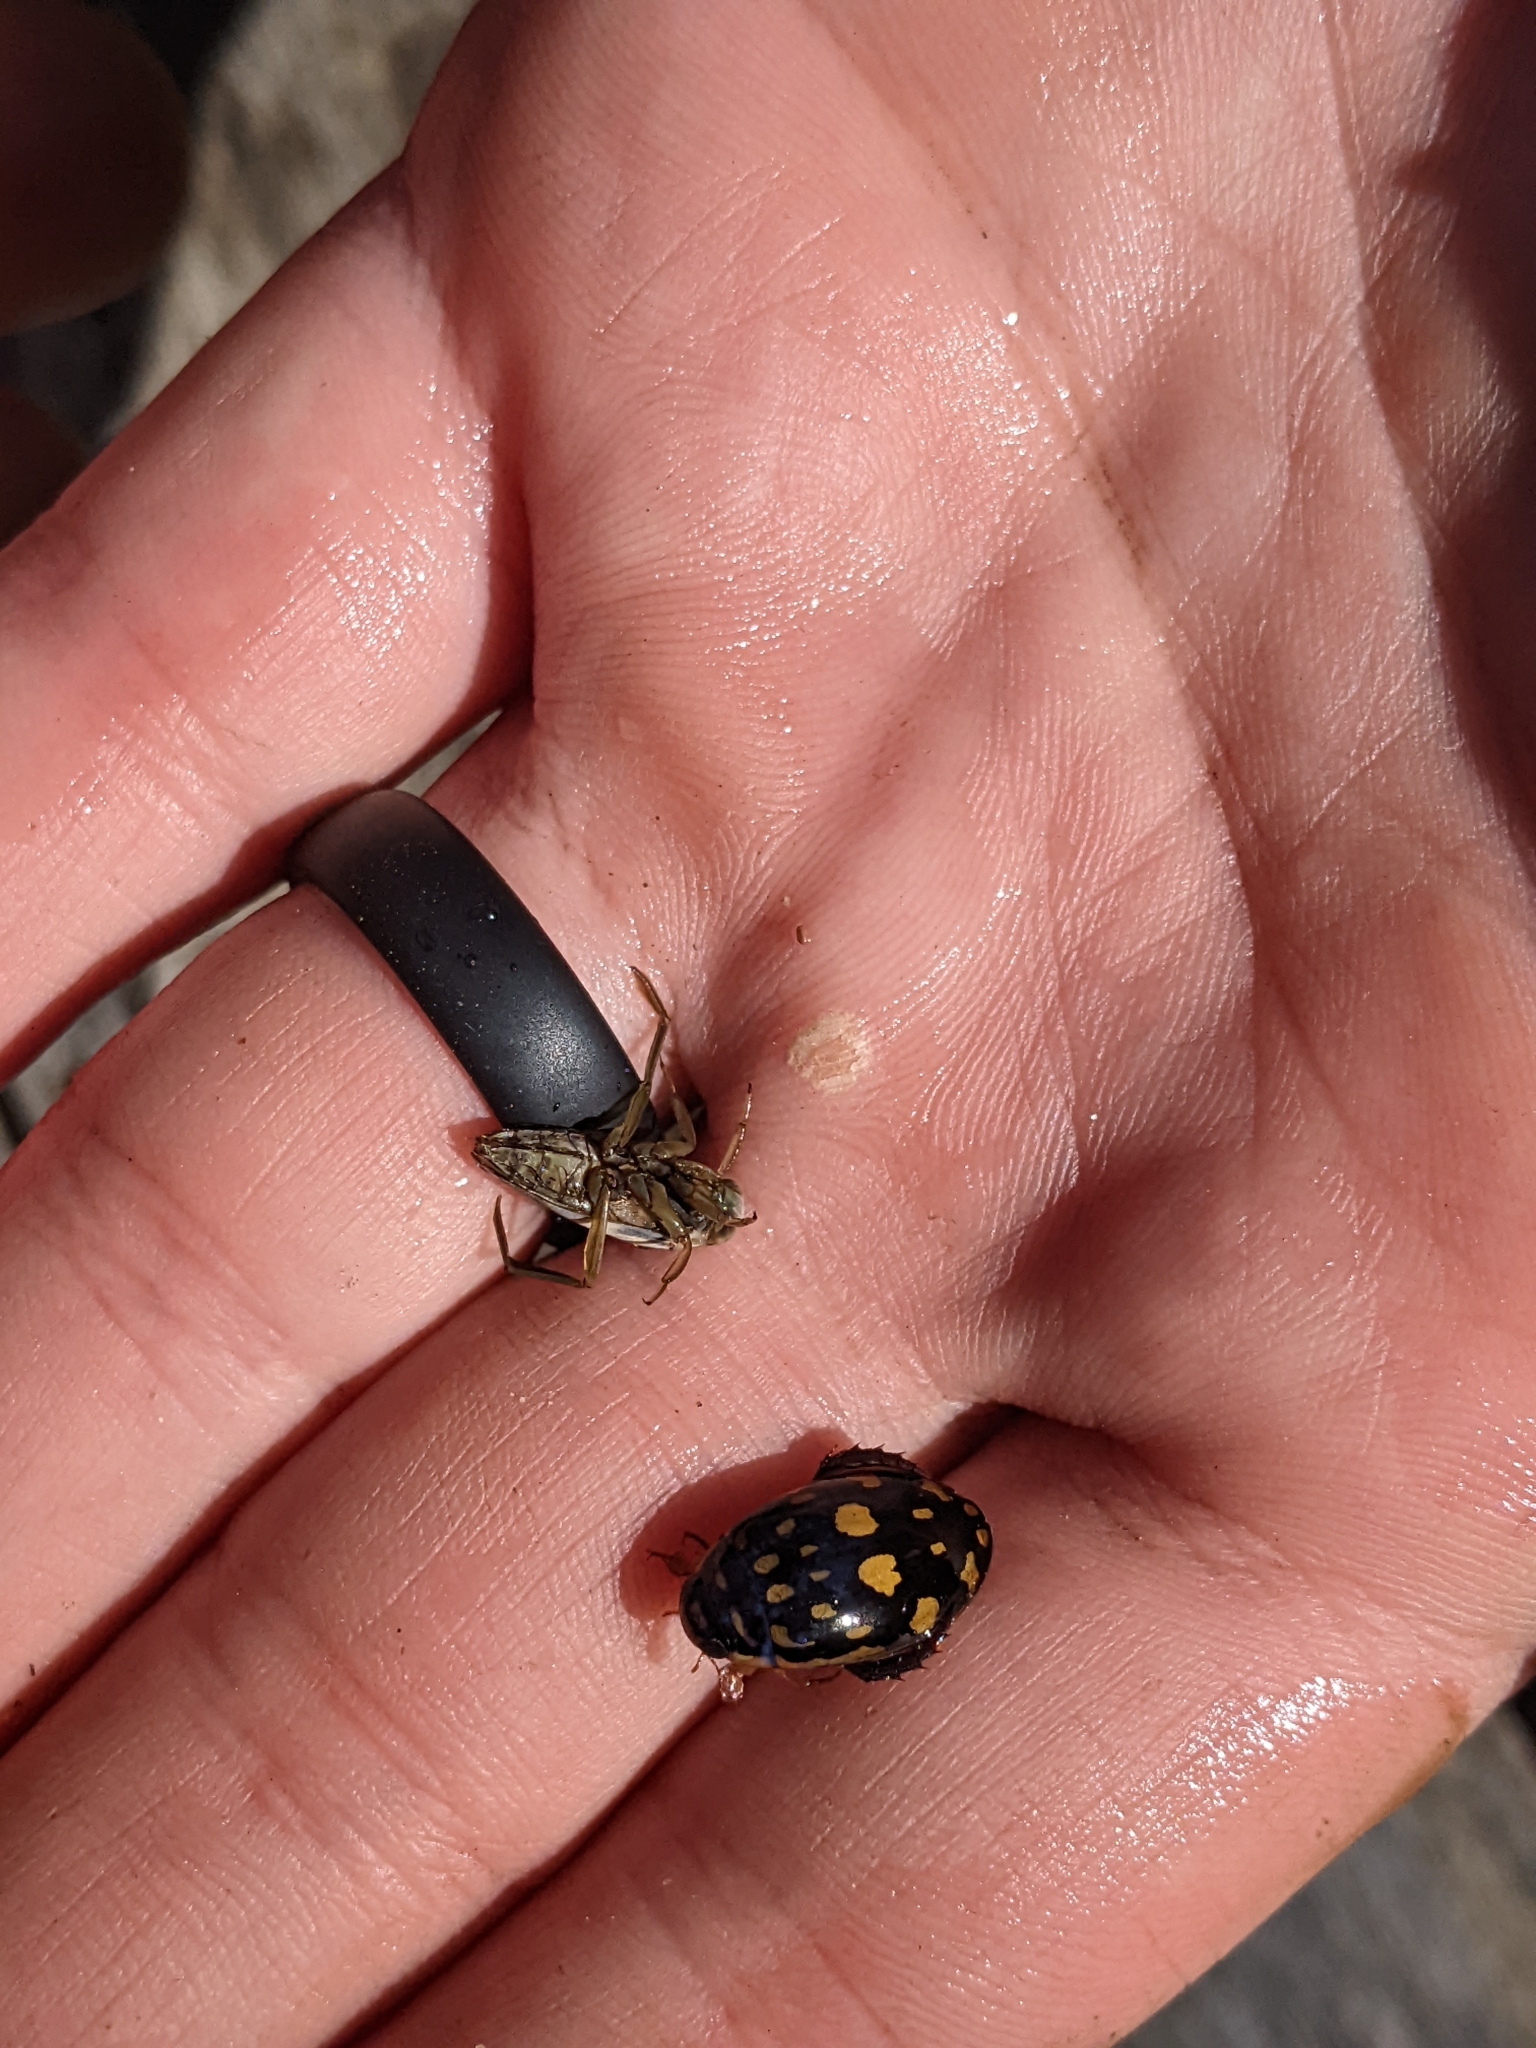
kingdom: Animalia
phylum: Arthropoda
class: Insecta
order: Hemiptera
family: Notonectidae
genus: Notonecta
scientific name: Notonecta indica
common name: Backswimmer
